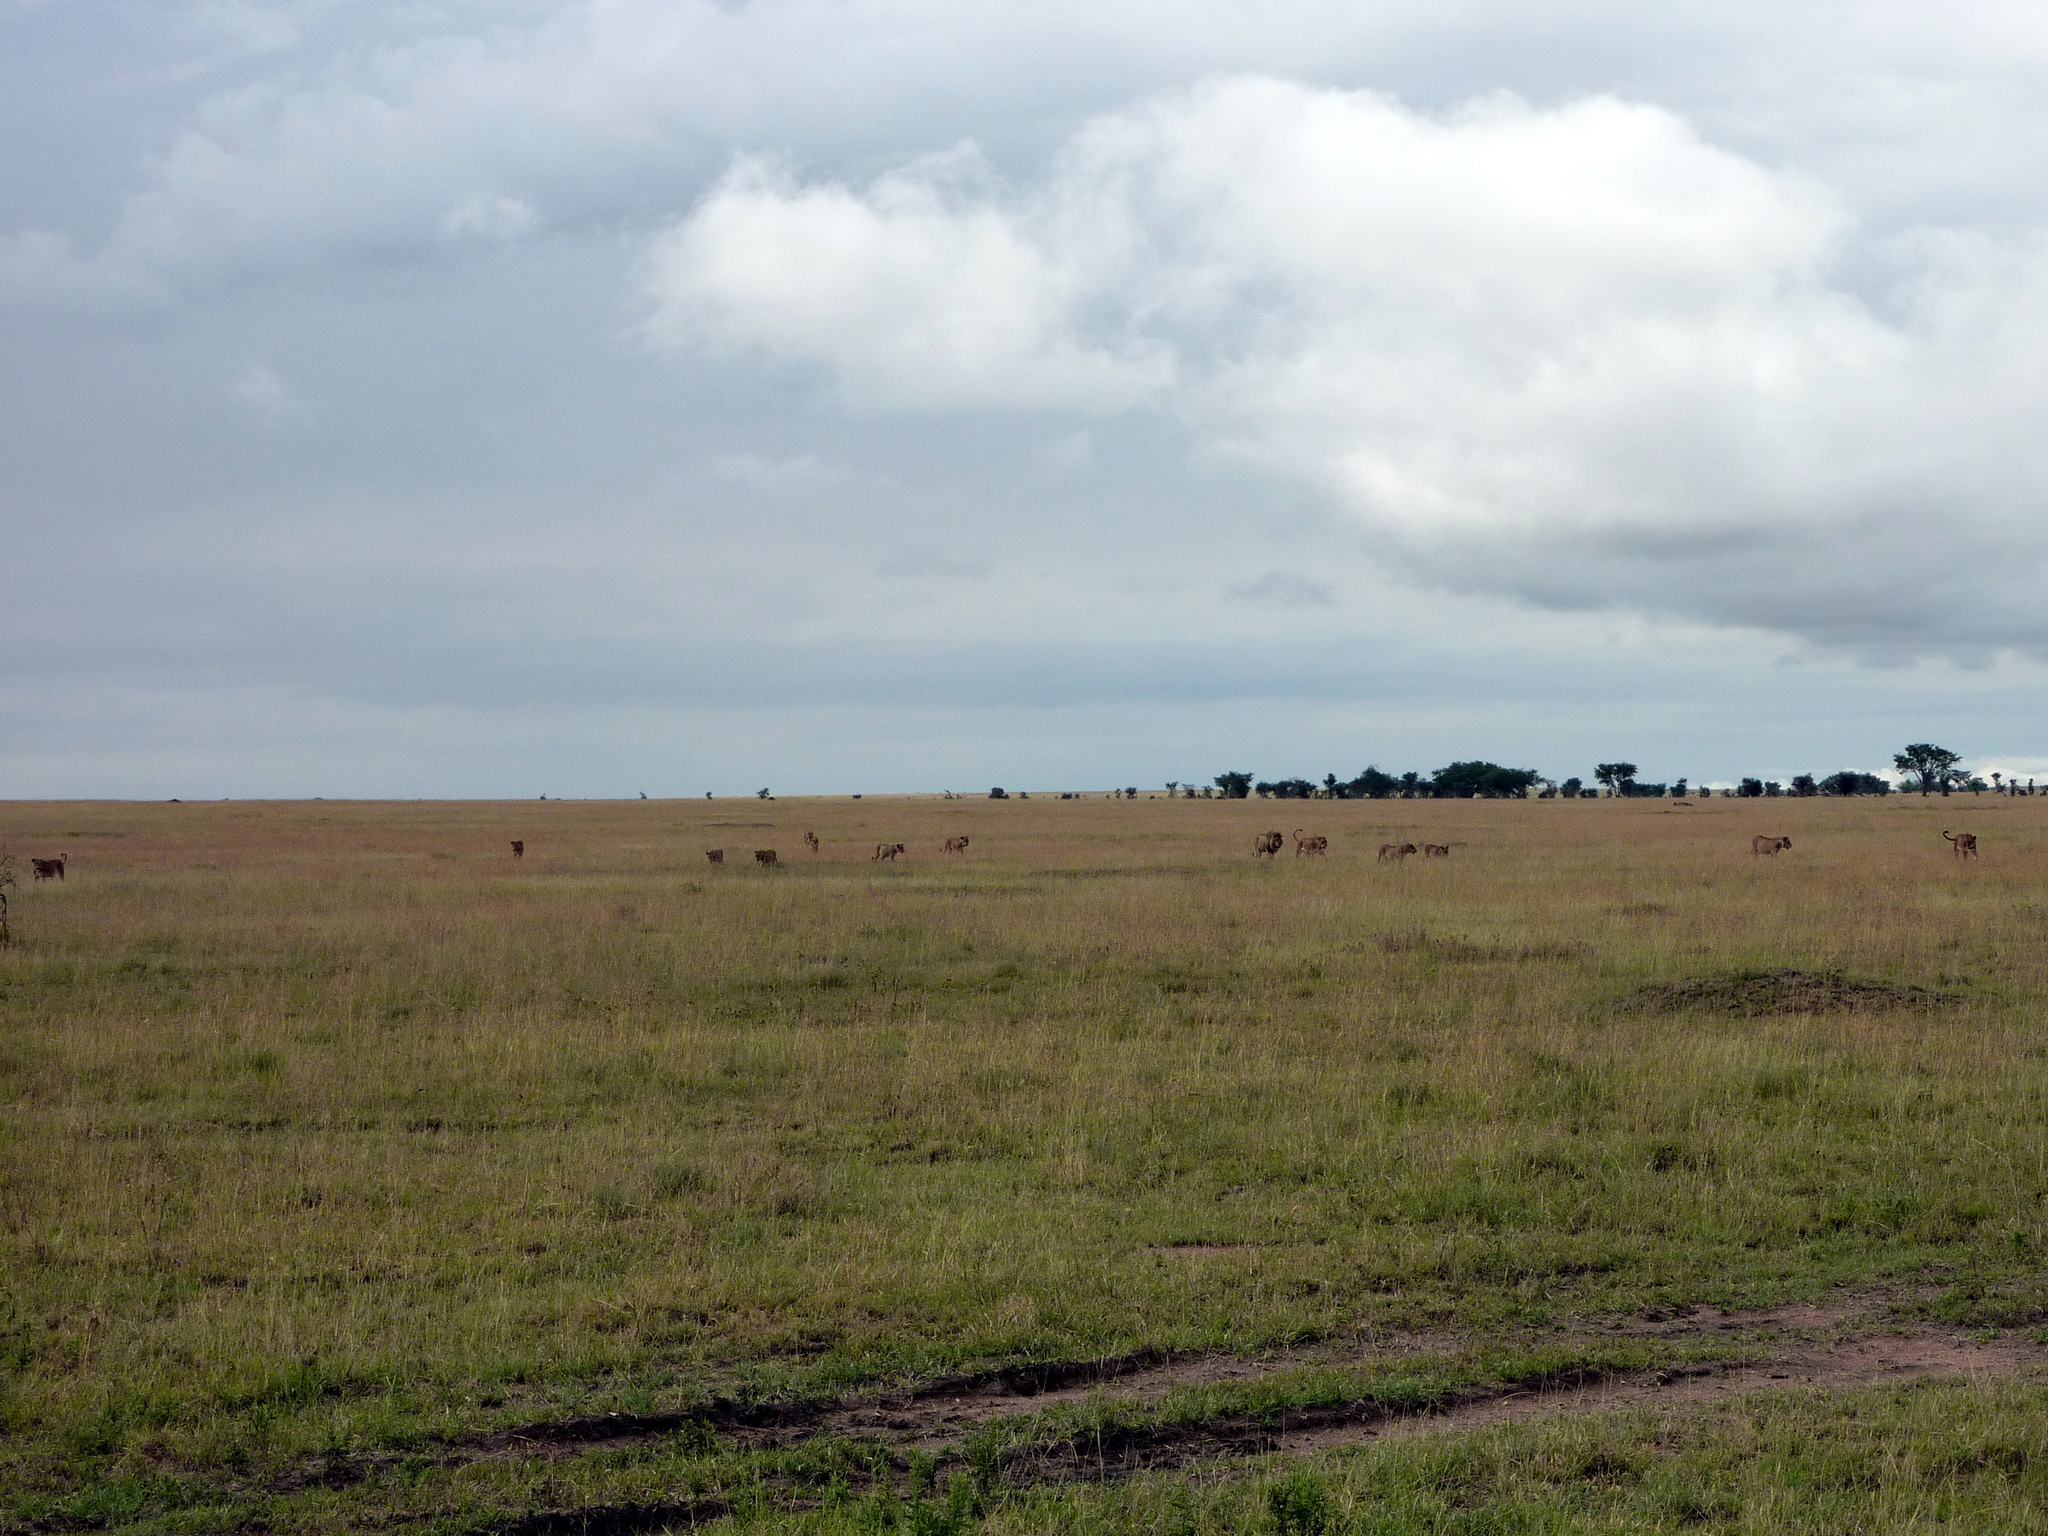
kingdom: Animalia
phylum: Chordata
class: Mammalia
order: Carnivora
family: Felidae
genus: Panthera
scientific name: Panthera leo
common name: Lion
